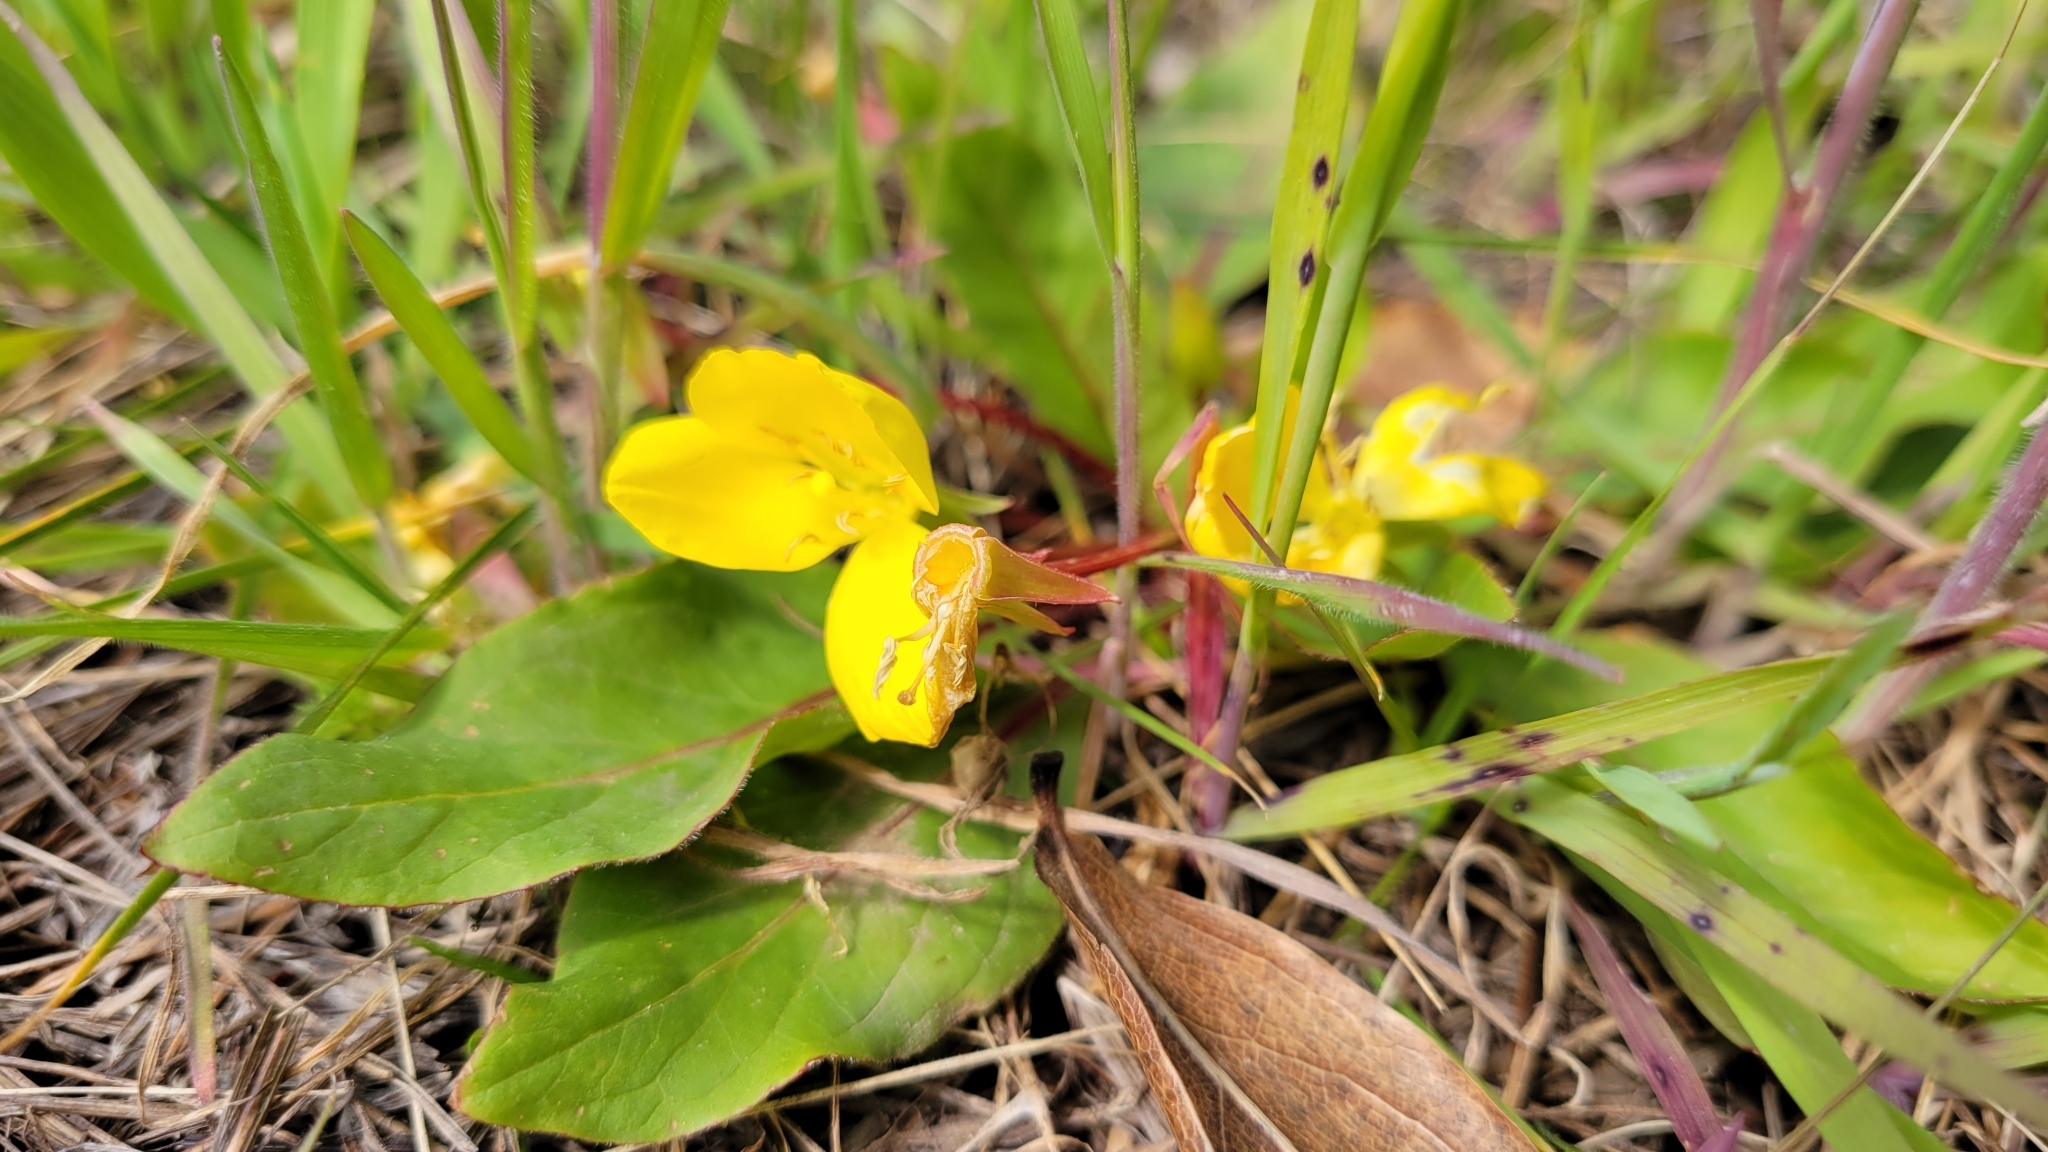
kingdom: Plantae
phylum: Tracheophyta
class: Magnoliopsida
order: Myrtales
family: Onagraceae
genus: Taraxia
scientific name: Taraxia ovata
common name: Goldeneggs
